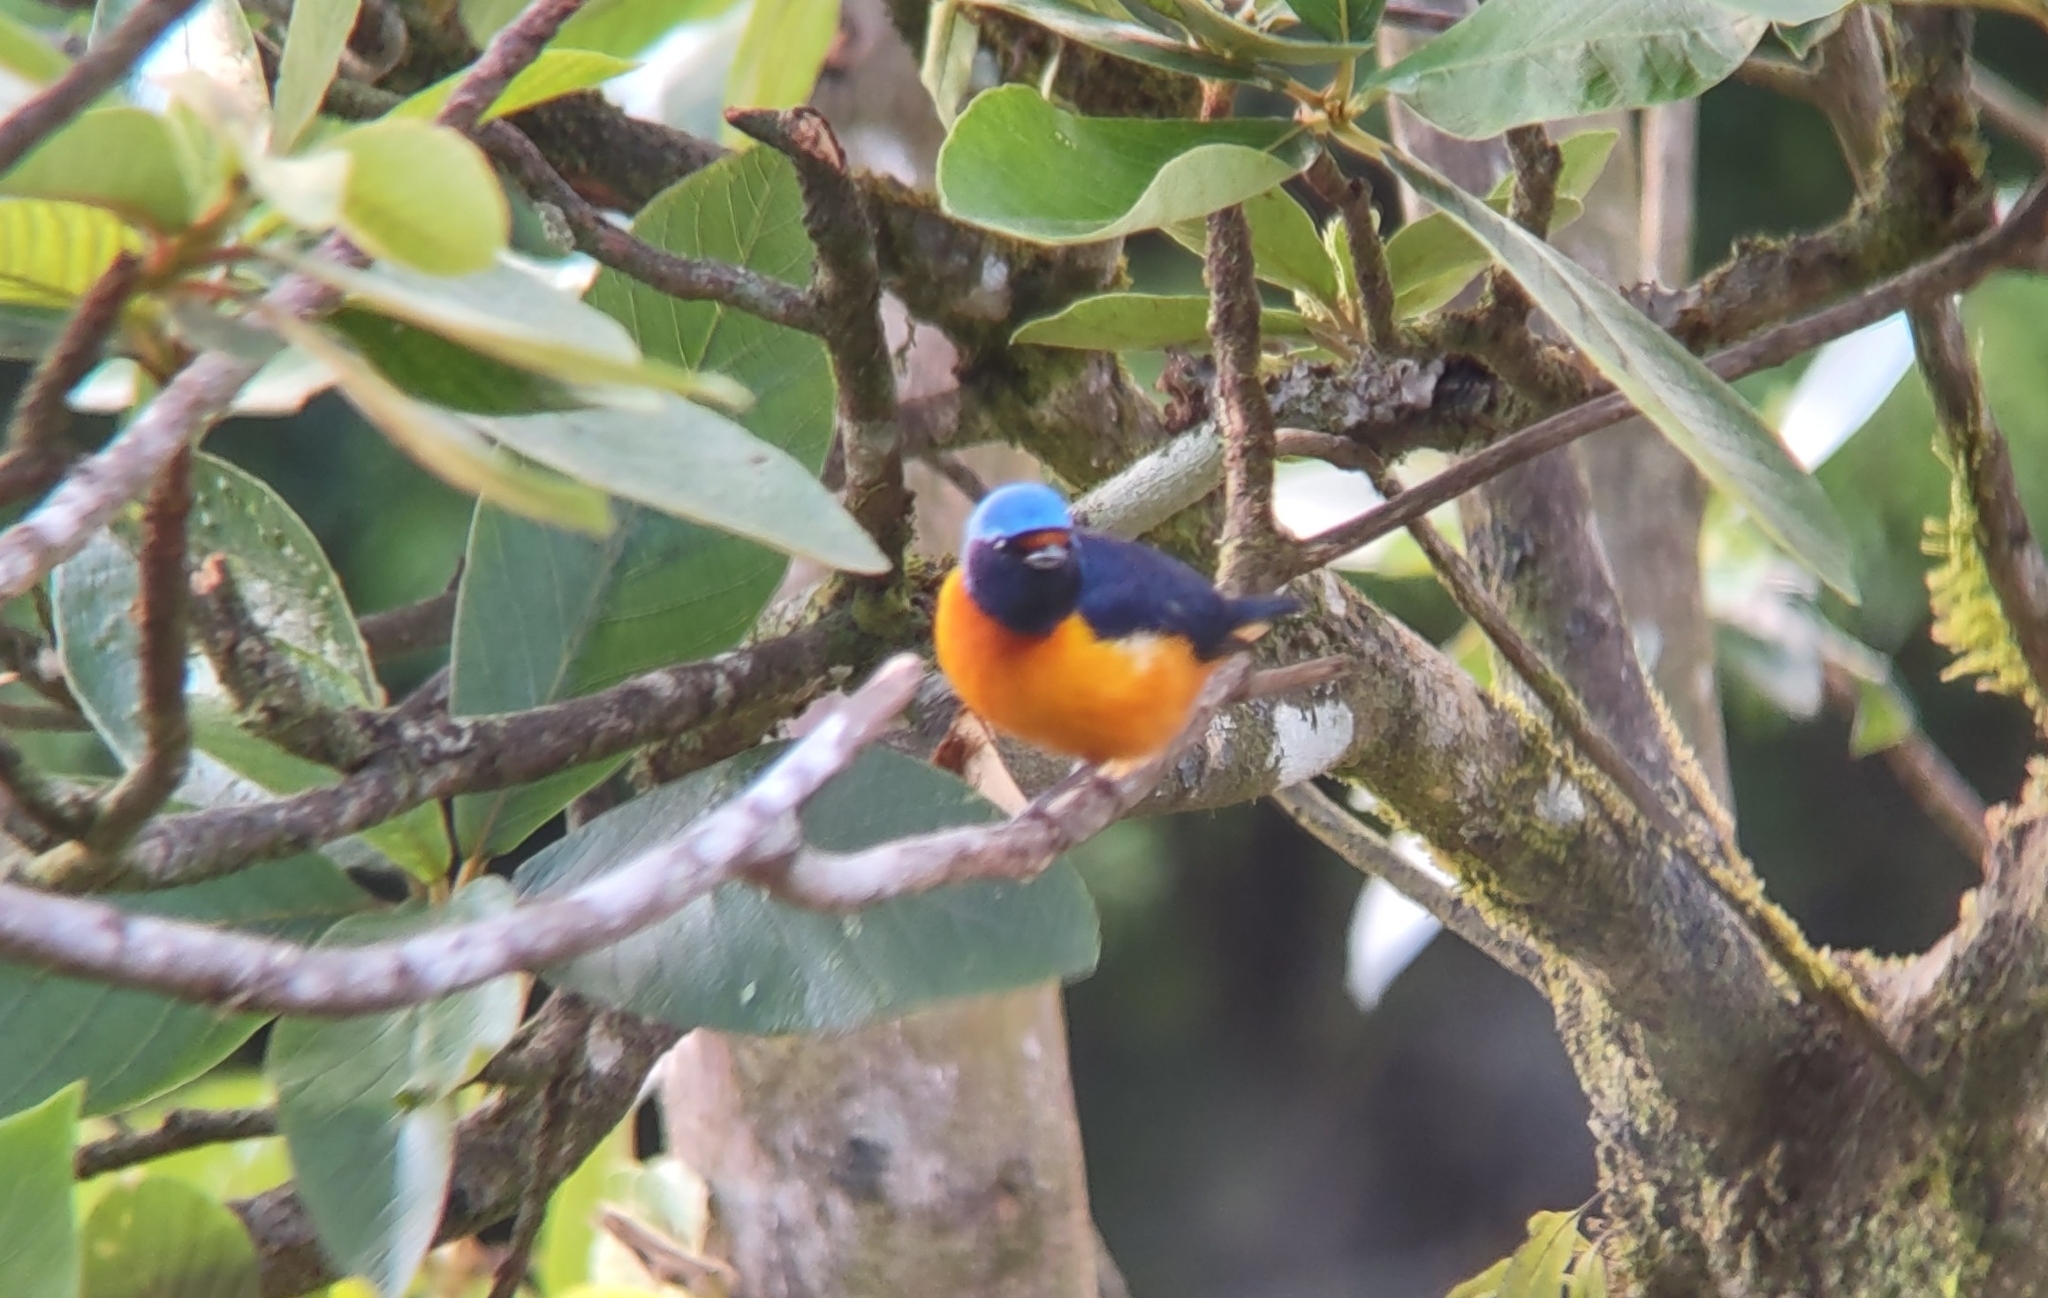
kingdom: Animalia
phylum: Chordata
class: Aves
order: Passeriformes
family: Fringillidae
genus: Euphonia
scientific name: Euphonia elegantissima
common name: Elegant euphonia
